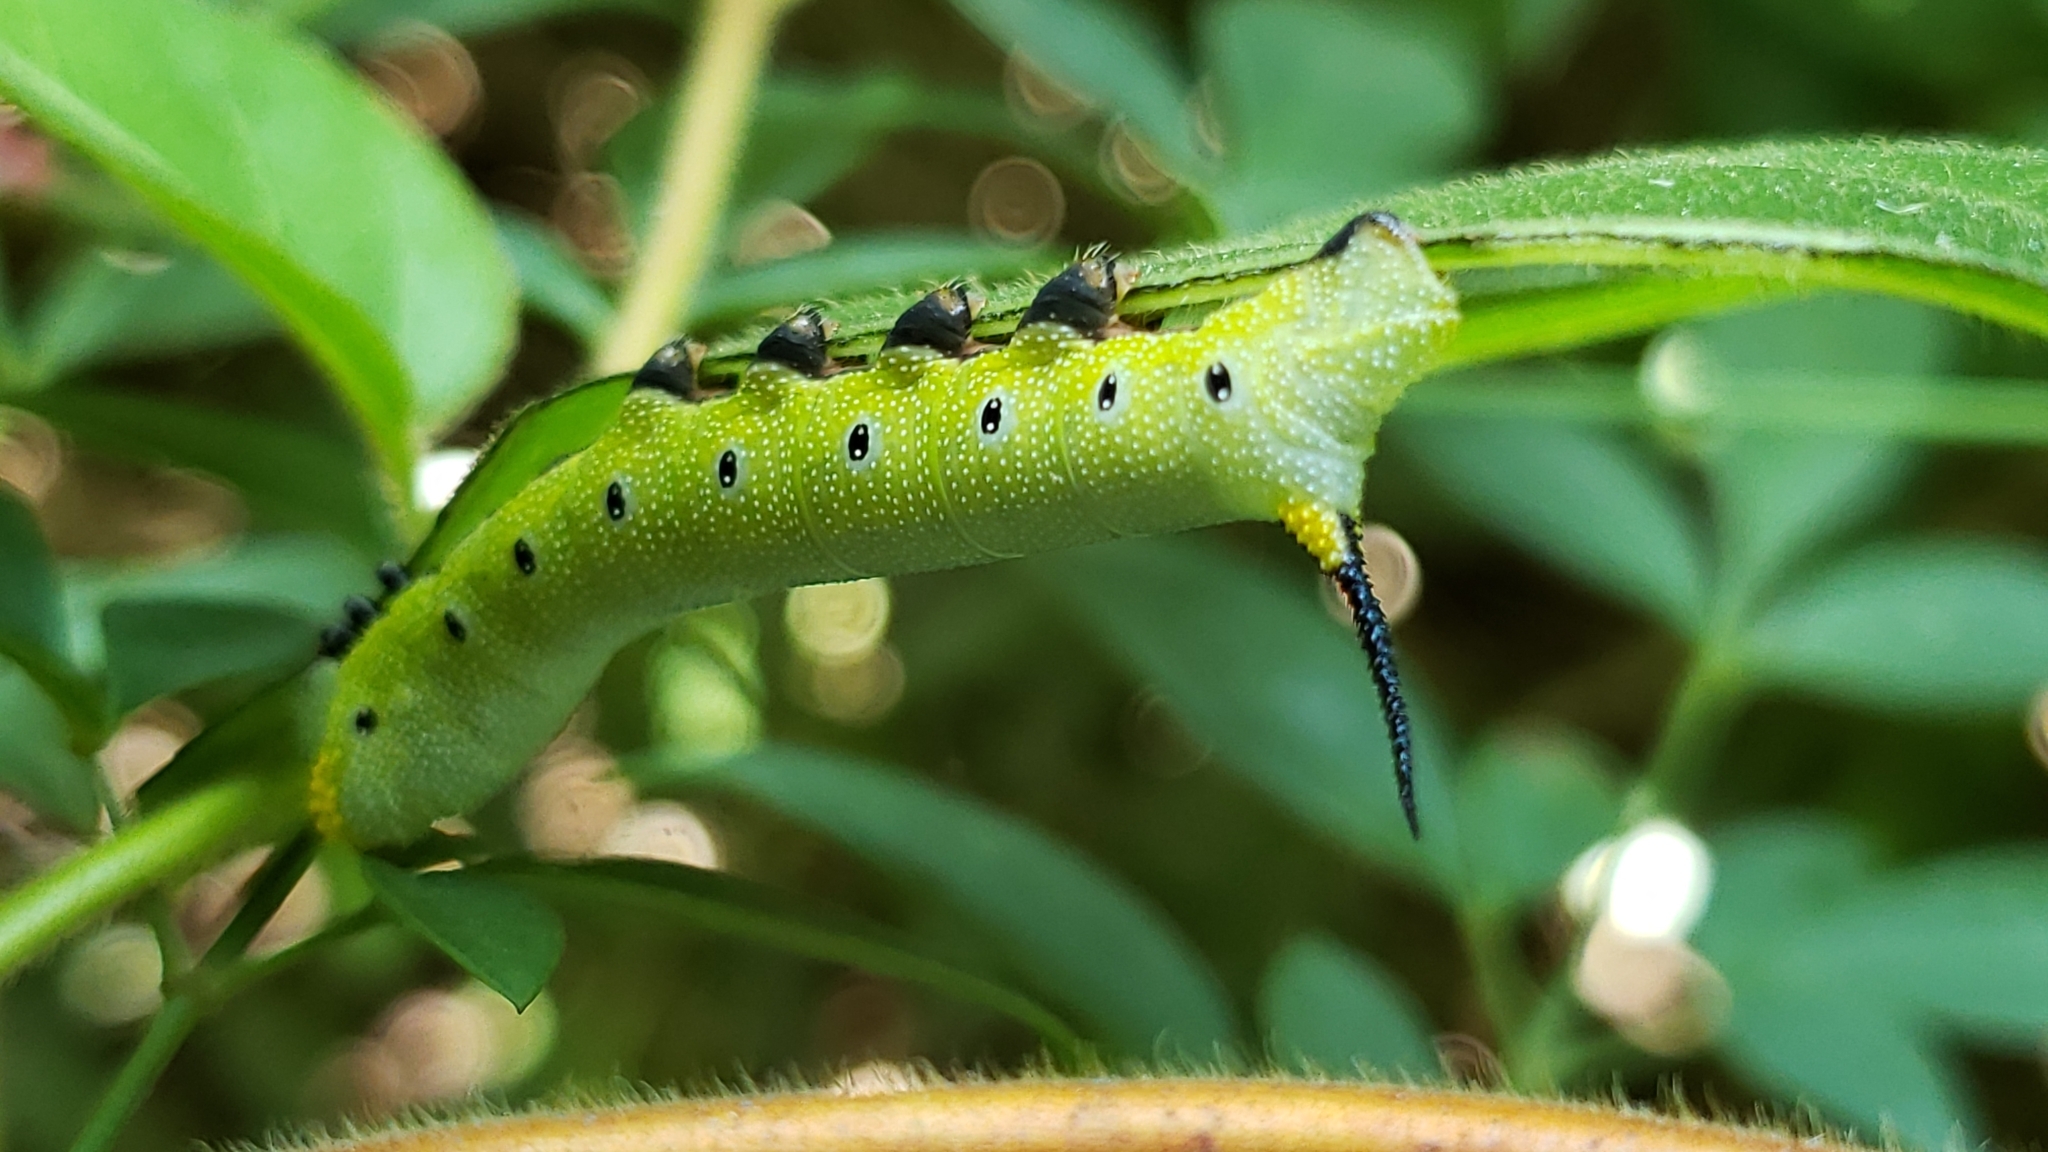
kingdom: Animalia
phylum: Arthropoda
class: Insecta
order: Lepidoptera
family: Sphingidae
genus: Hemaris
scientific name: Hemaris diffinis
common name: Bumblebee moth
